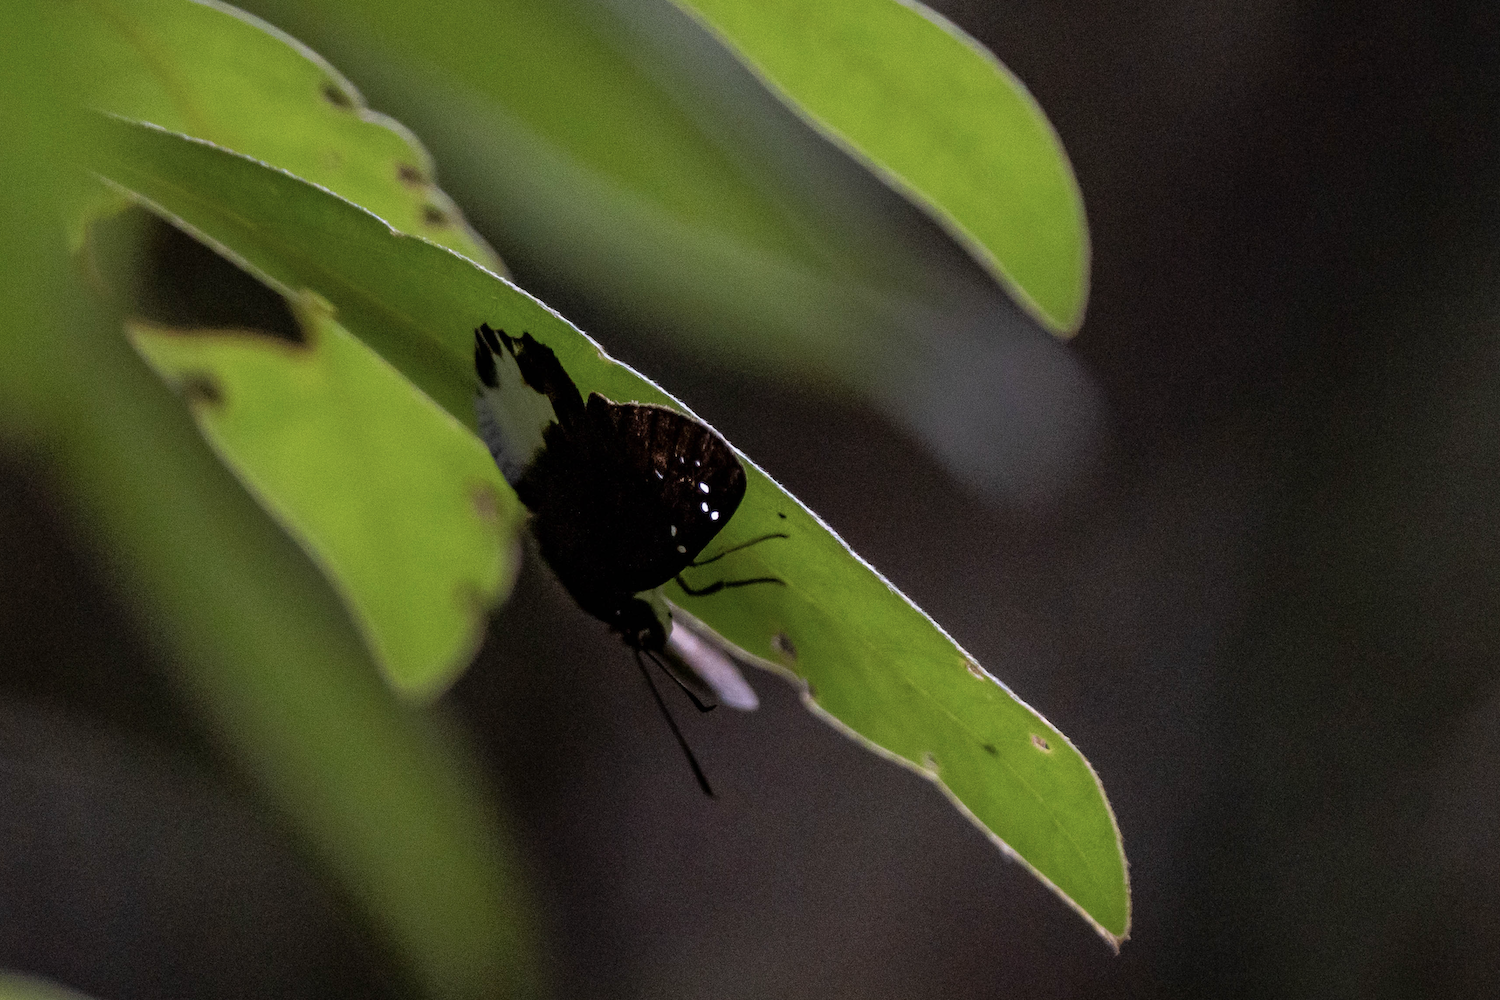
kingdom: Animalia
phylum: Arthropoda
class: Insecta
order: Lepidoptera
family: Hesperiidae
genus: Tagiades
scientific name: Tagiades litigiosa
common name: Water snow flat
